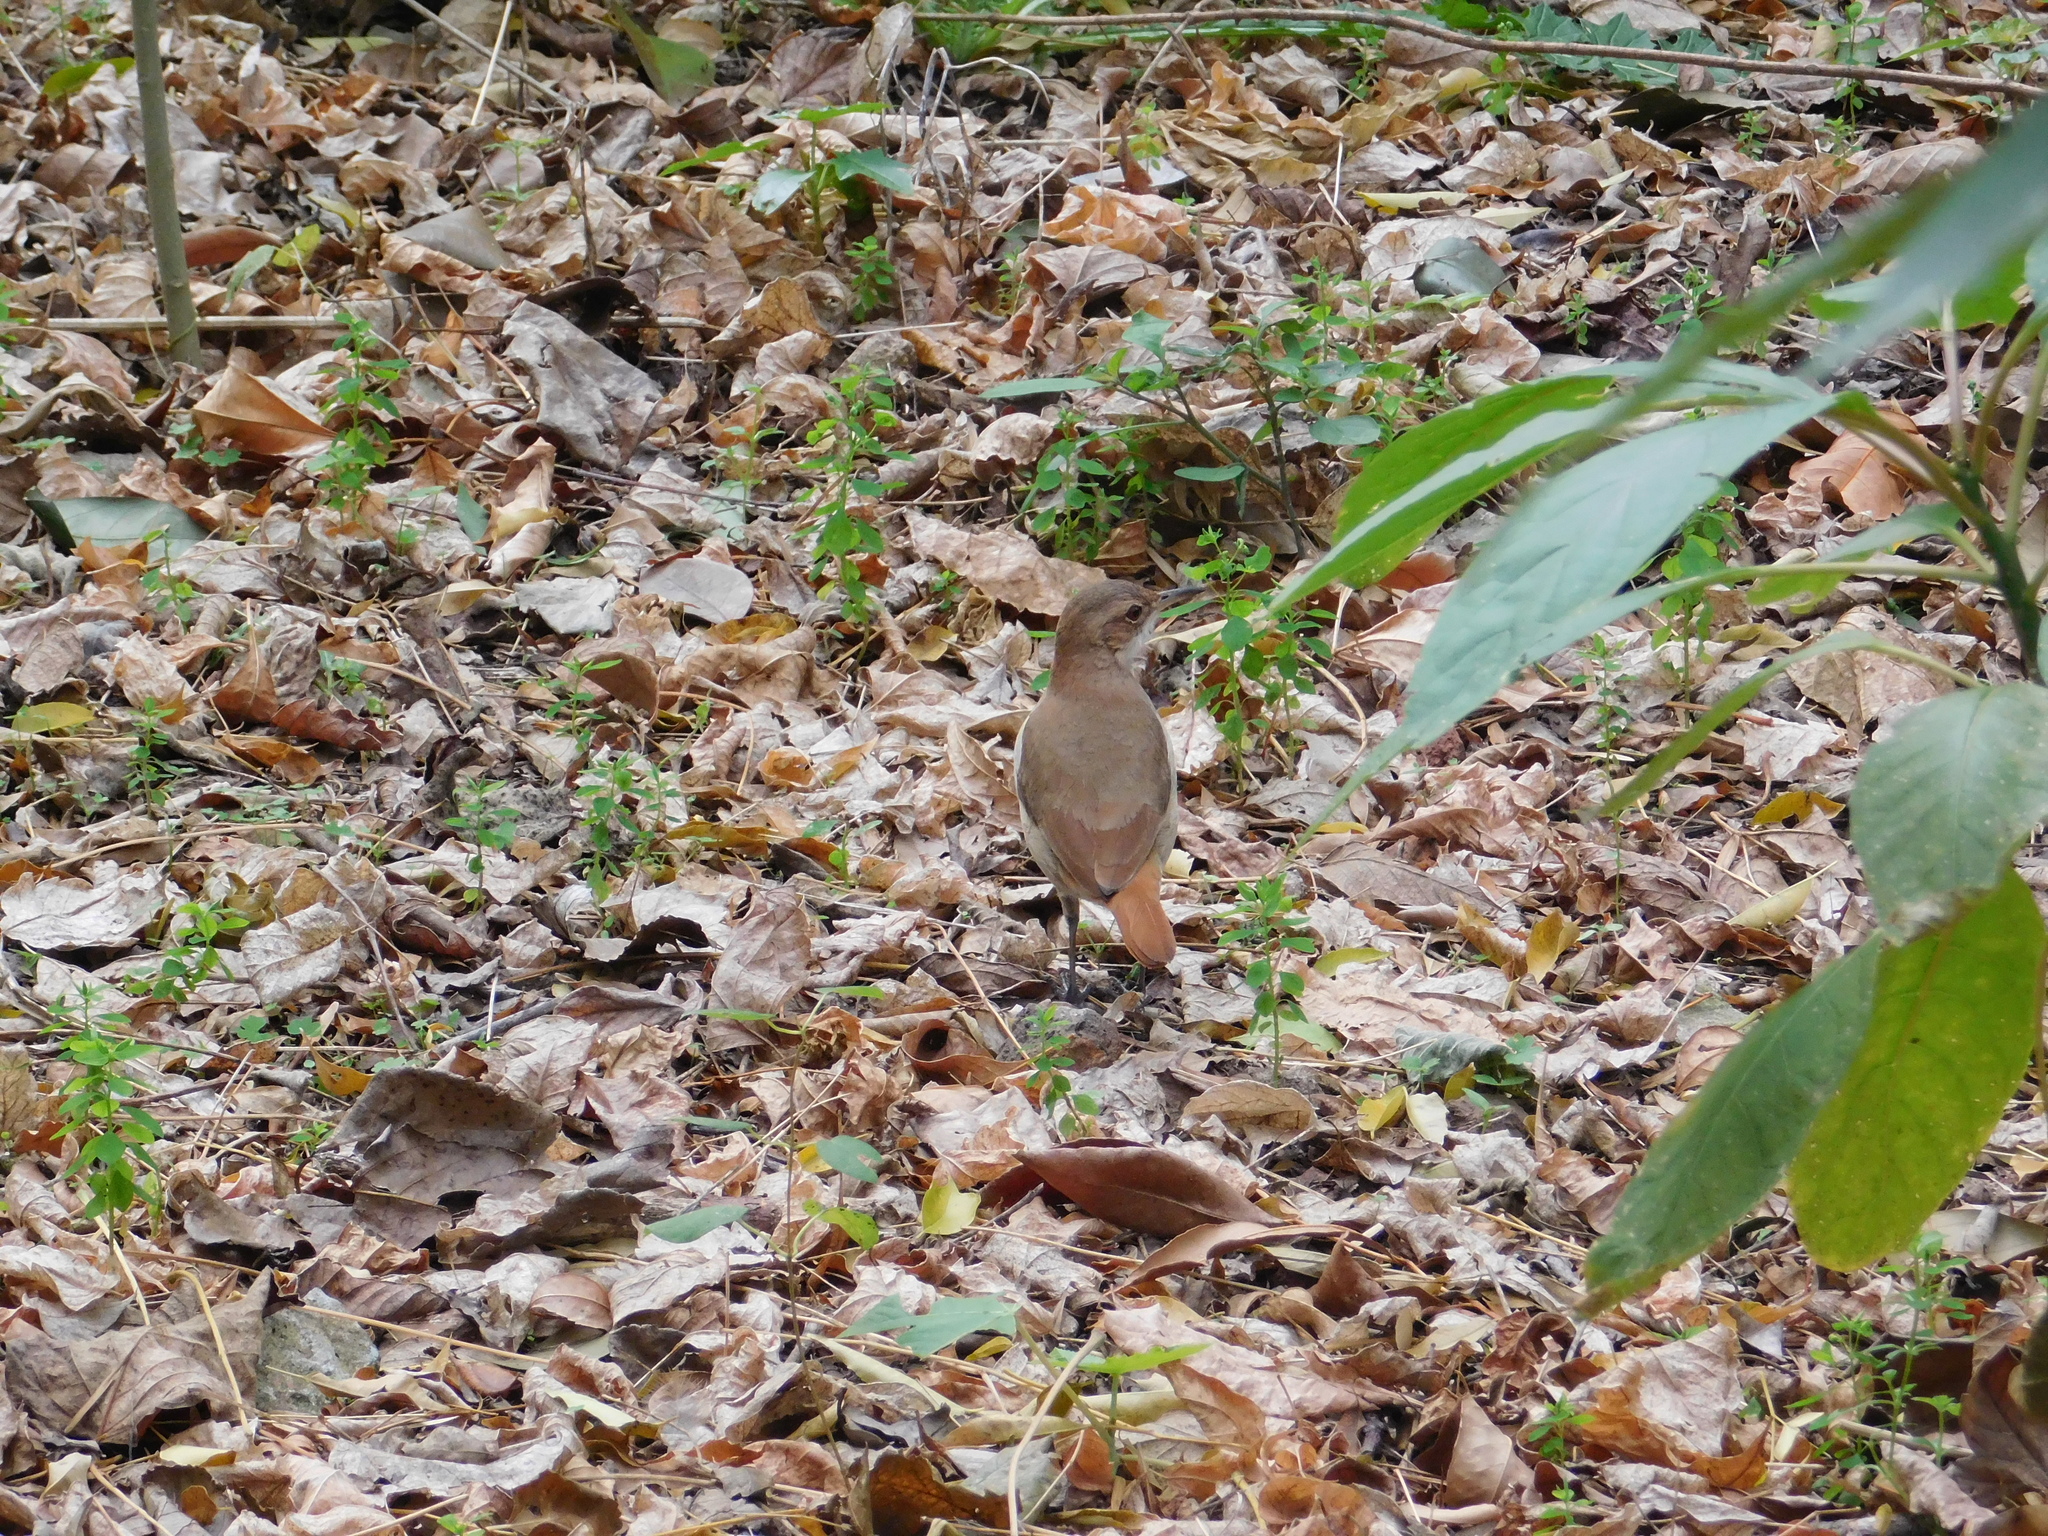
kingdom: Animalia
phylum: Chordata
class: Aves
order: Passeriformes
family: Furnariidae
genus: Furnarius
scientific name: Furnarius rufus
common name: Rufous hornero
